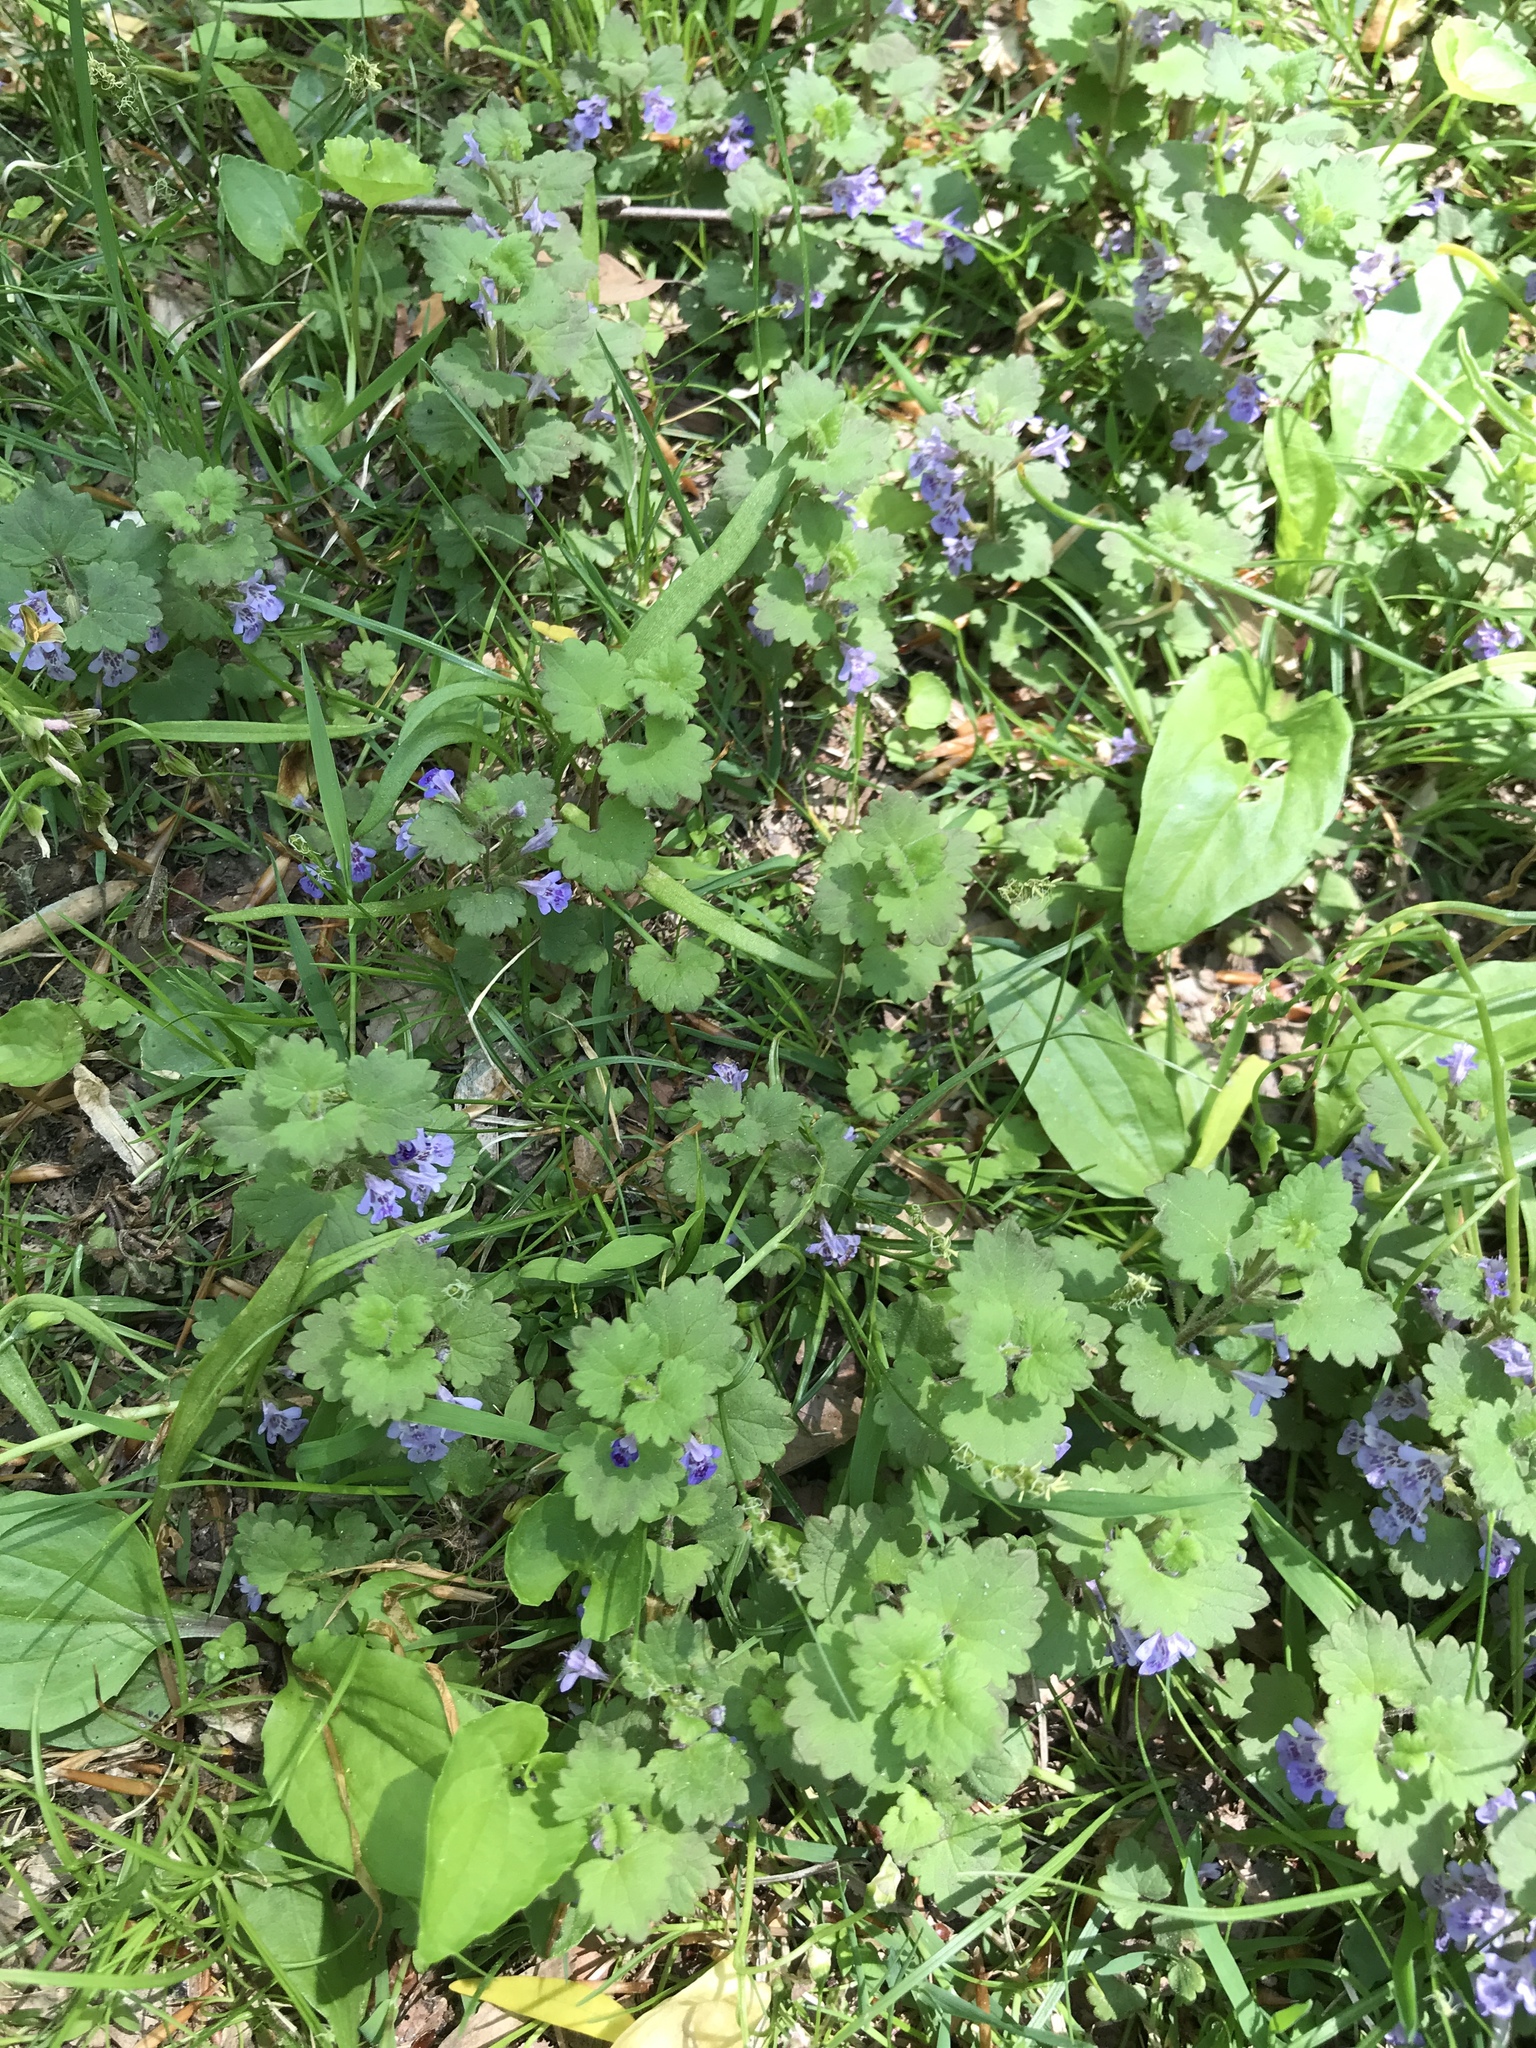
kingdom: Plantae
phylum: Tracheophyta
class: Magnoliopsida
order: Lamiales
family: Lamiaceae
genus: Glechoma
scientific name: Glechoma hederacea
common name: Ground ivy
